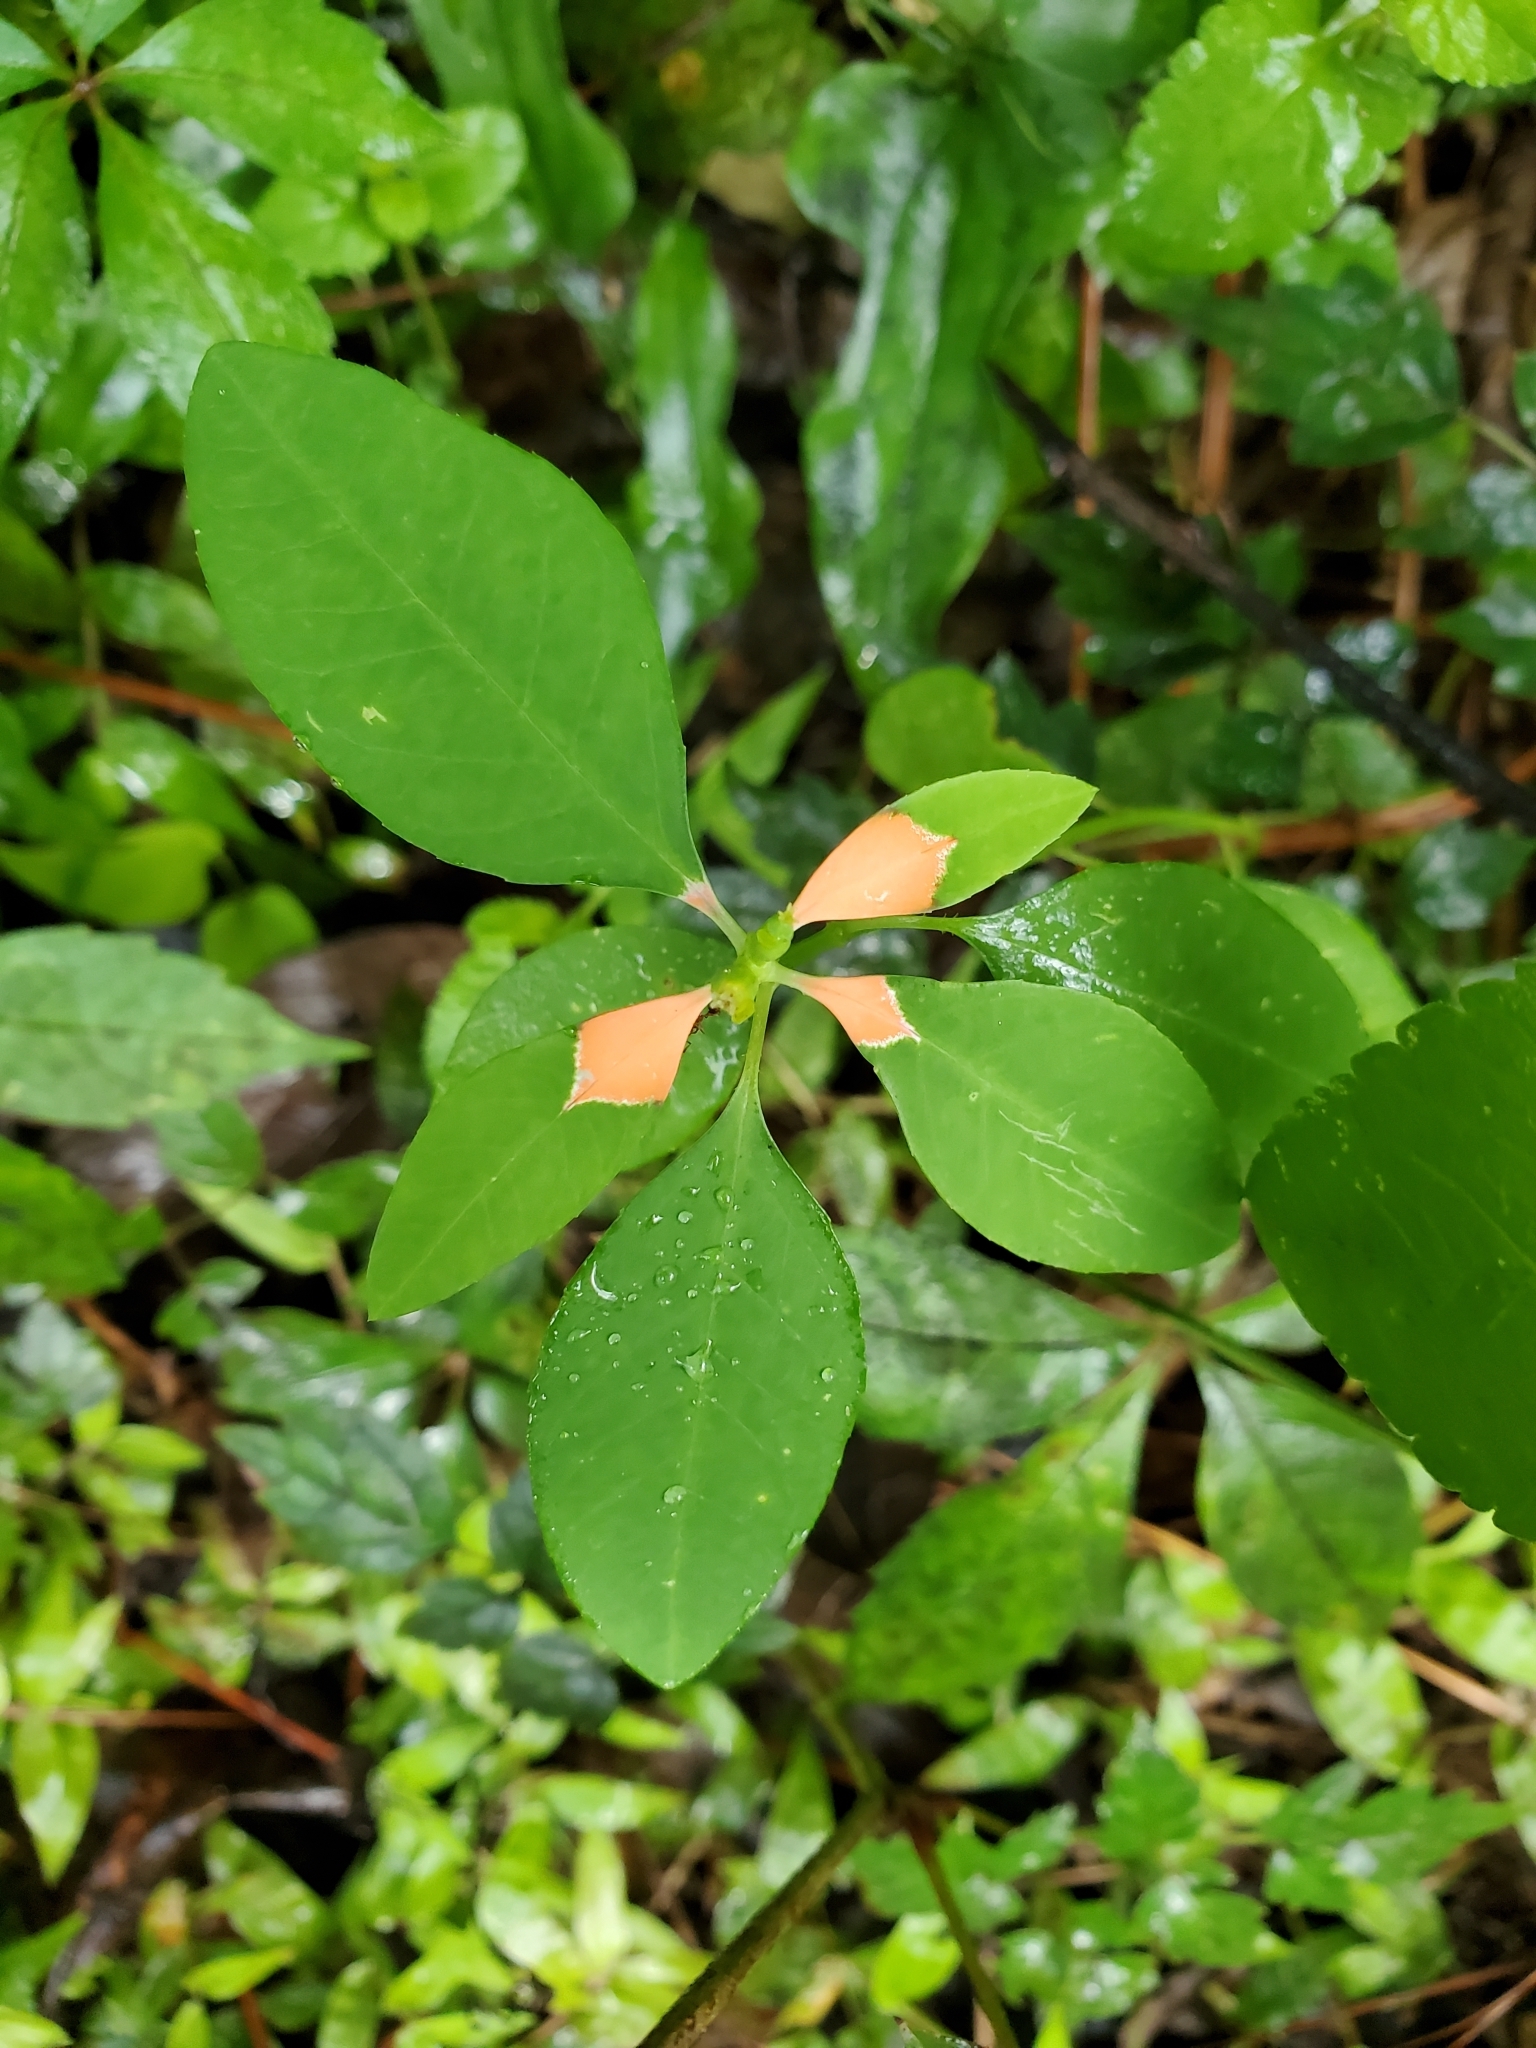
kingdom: Plantae
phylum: Tracheophyta
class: Magnoliopsida
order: Malpighiales
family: Euphorbiaceae
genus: Euphorbia
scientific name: Euphorbia heterophylla
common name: Mexican fireplant
